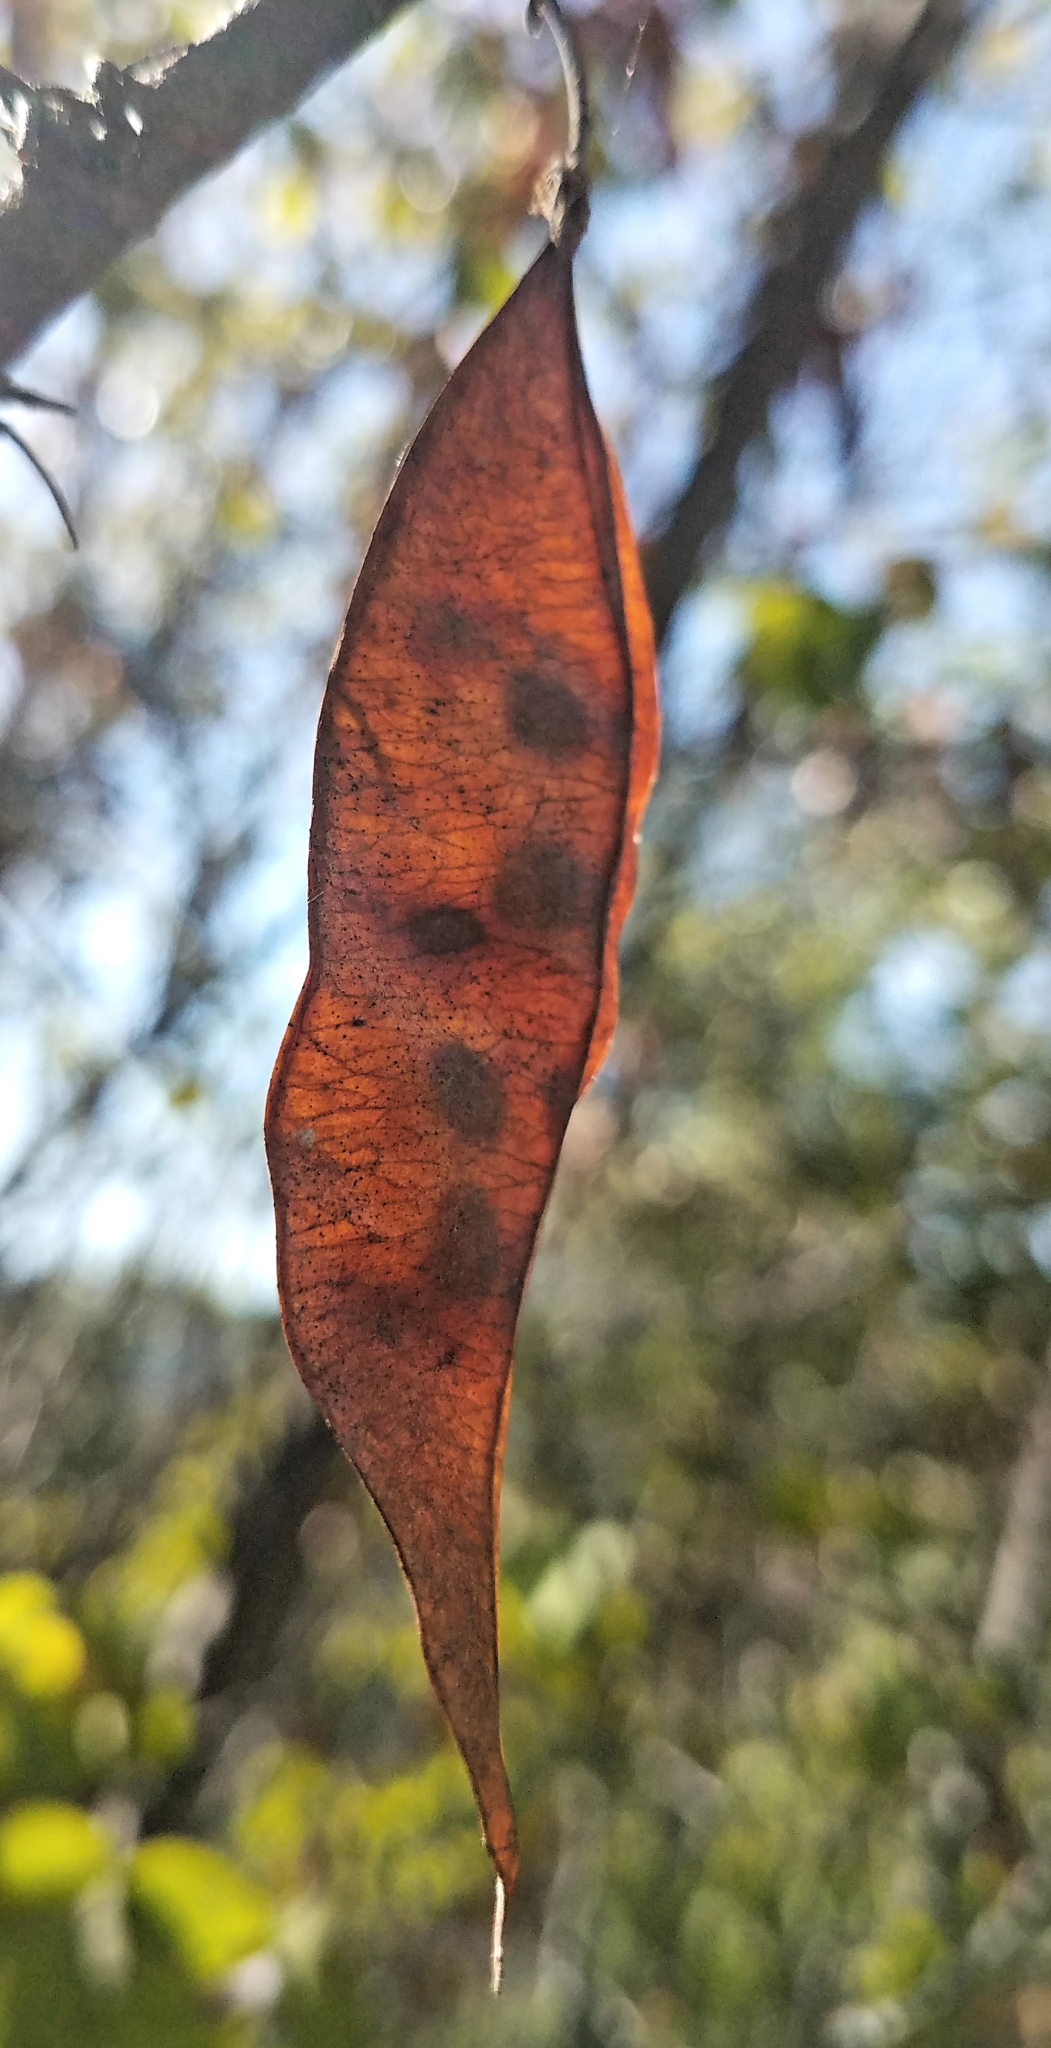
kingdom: Plantae
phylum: Tracheophyta
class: Magnoliopsida
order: Fabales
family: Fabaceae
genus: Cercis
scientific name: Cercis occidentalis
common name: California redbud
